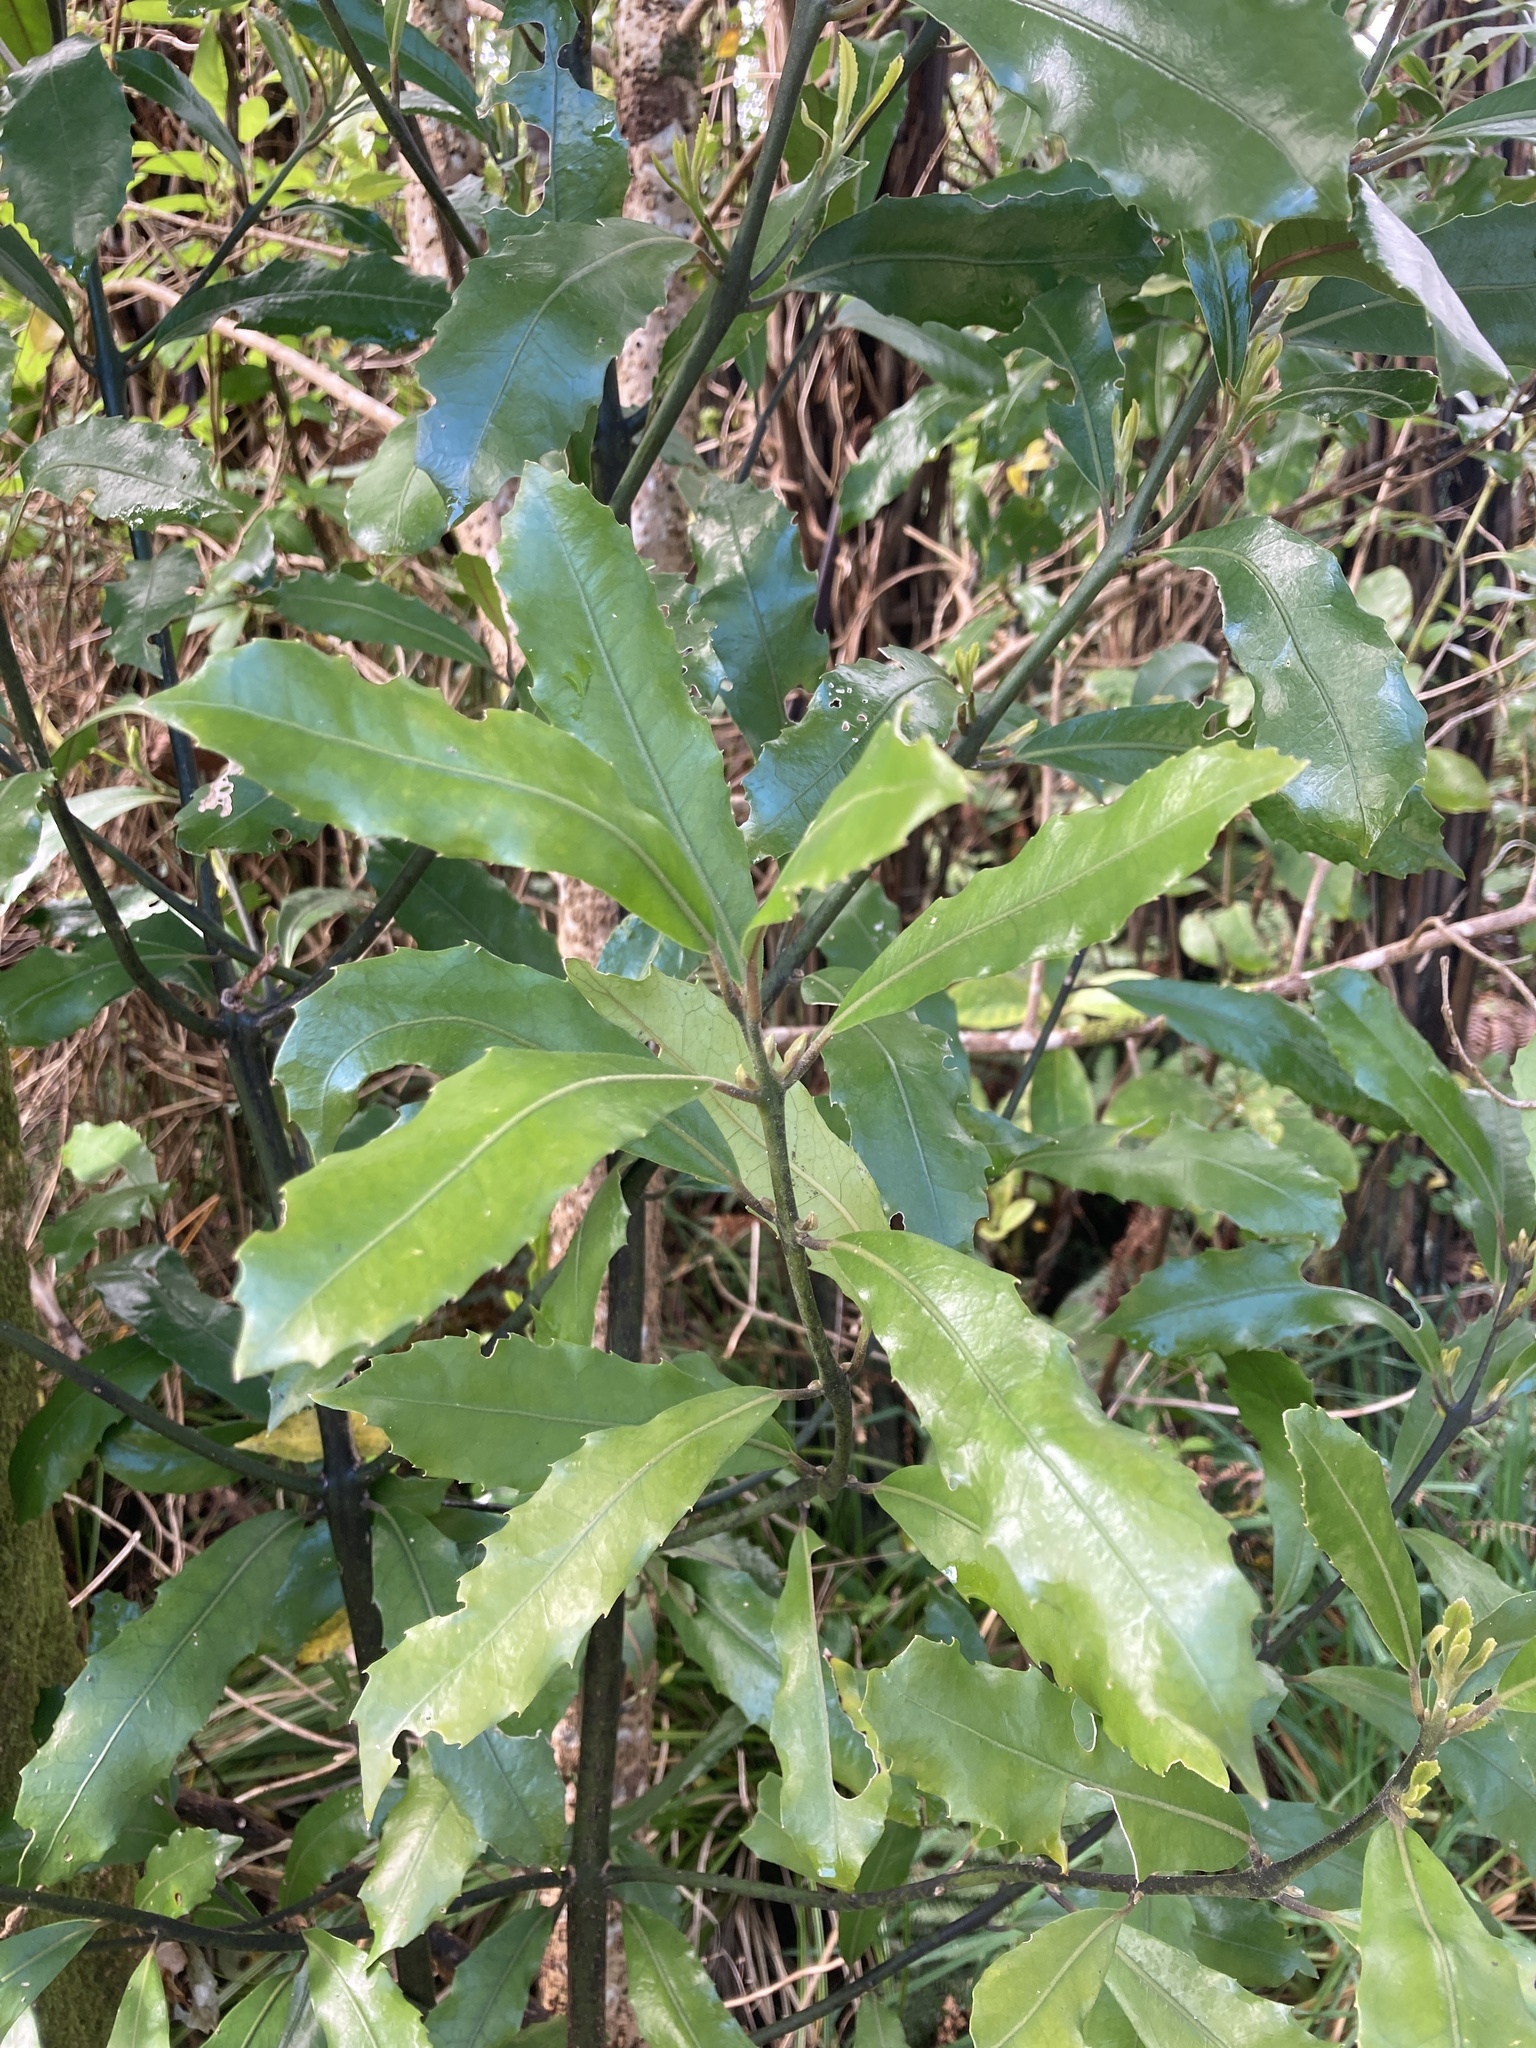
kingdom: Plantae
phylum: Tracheophyta
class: Magnoliopsida
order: Laurales
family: Monimiaceae
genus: Hedycarya
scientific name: Hedycarya arborea
